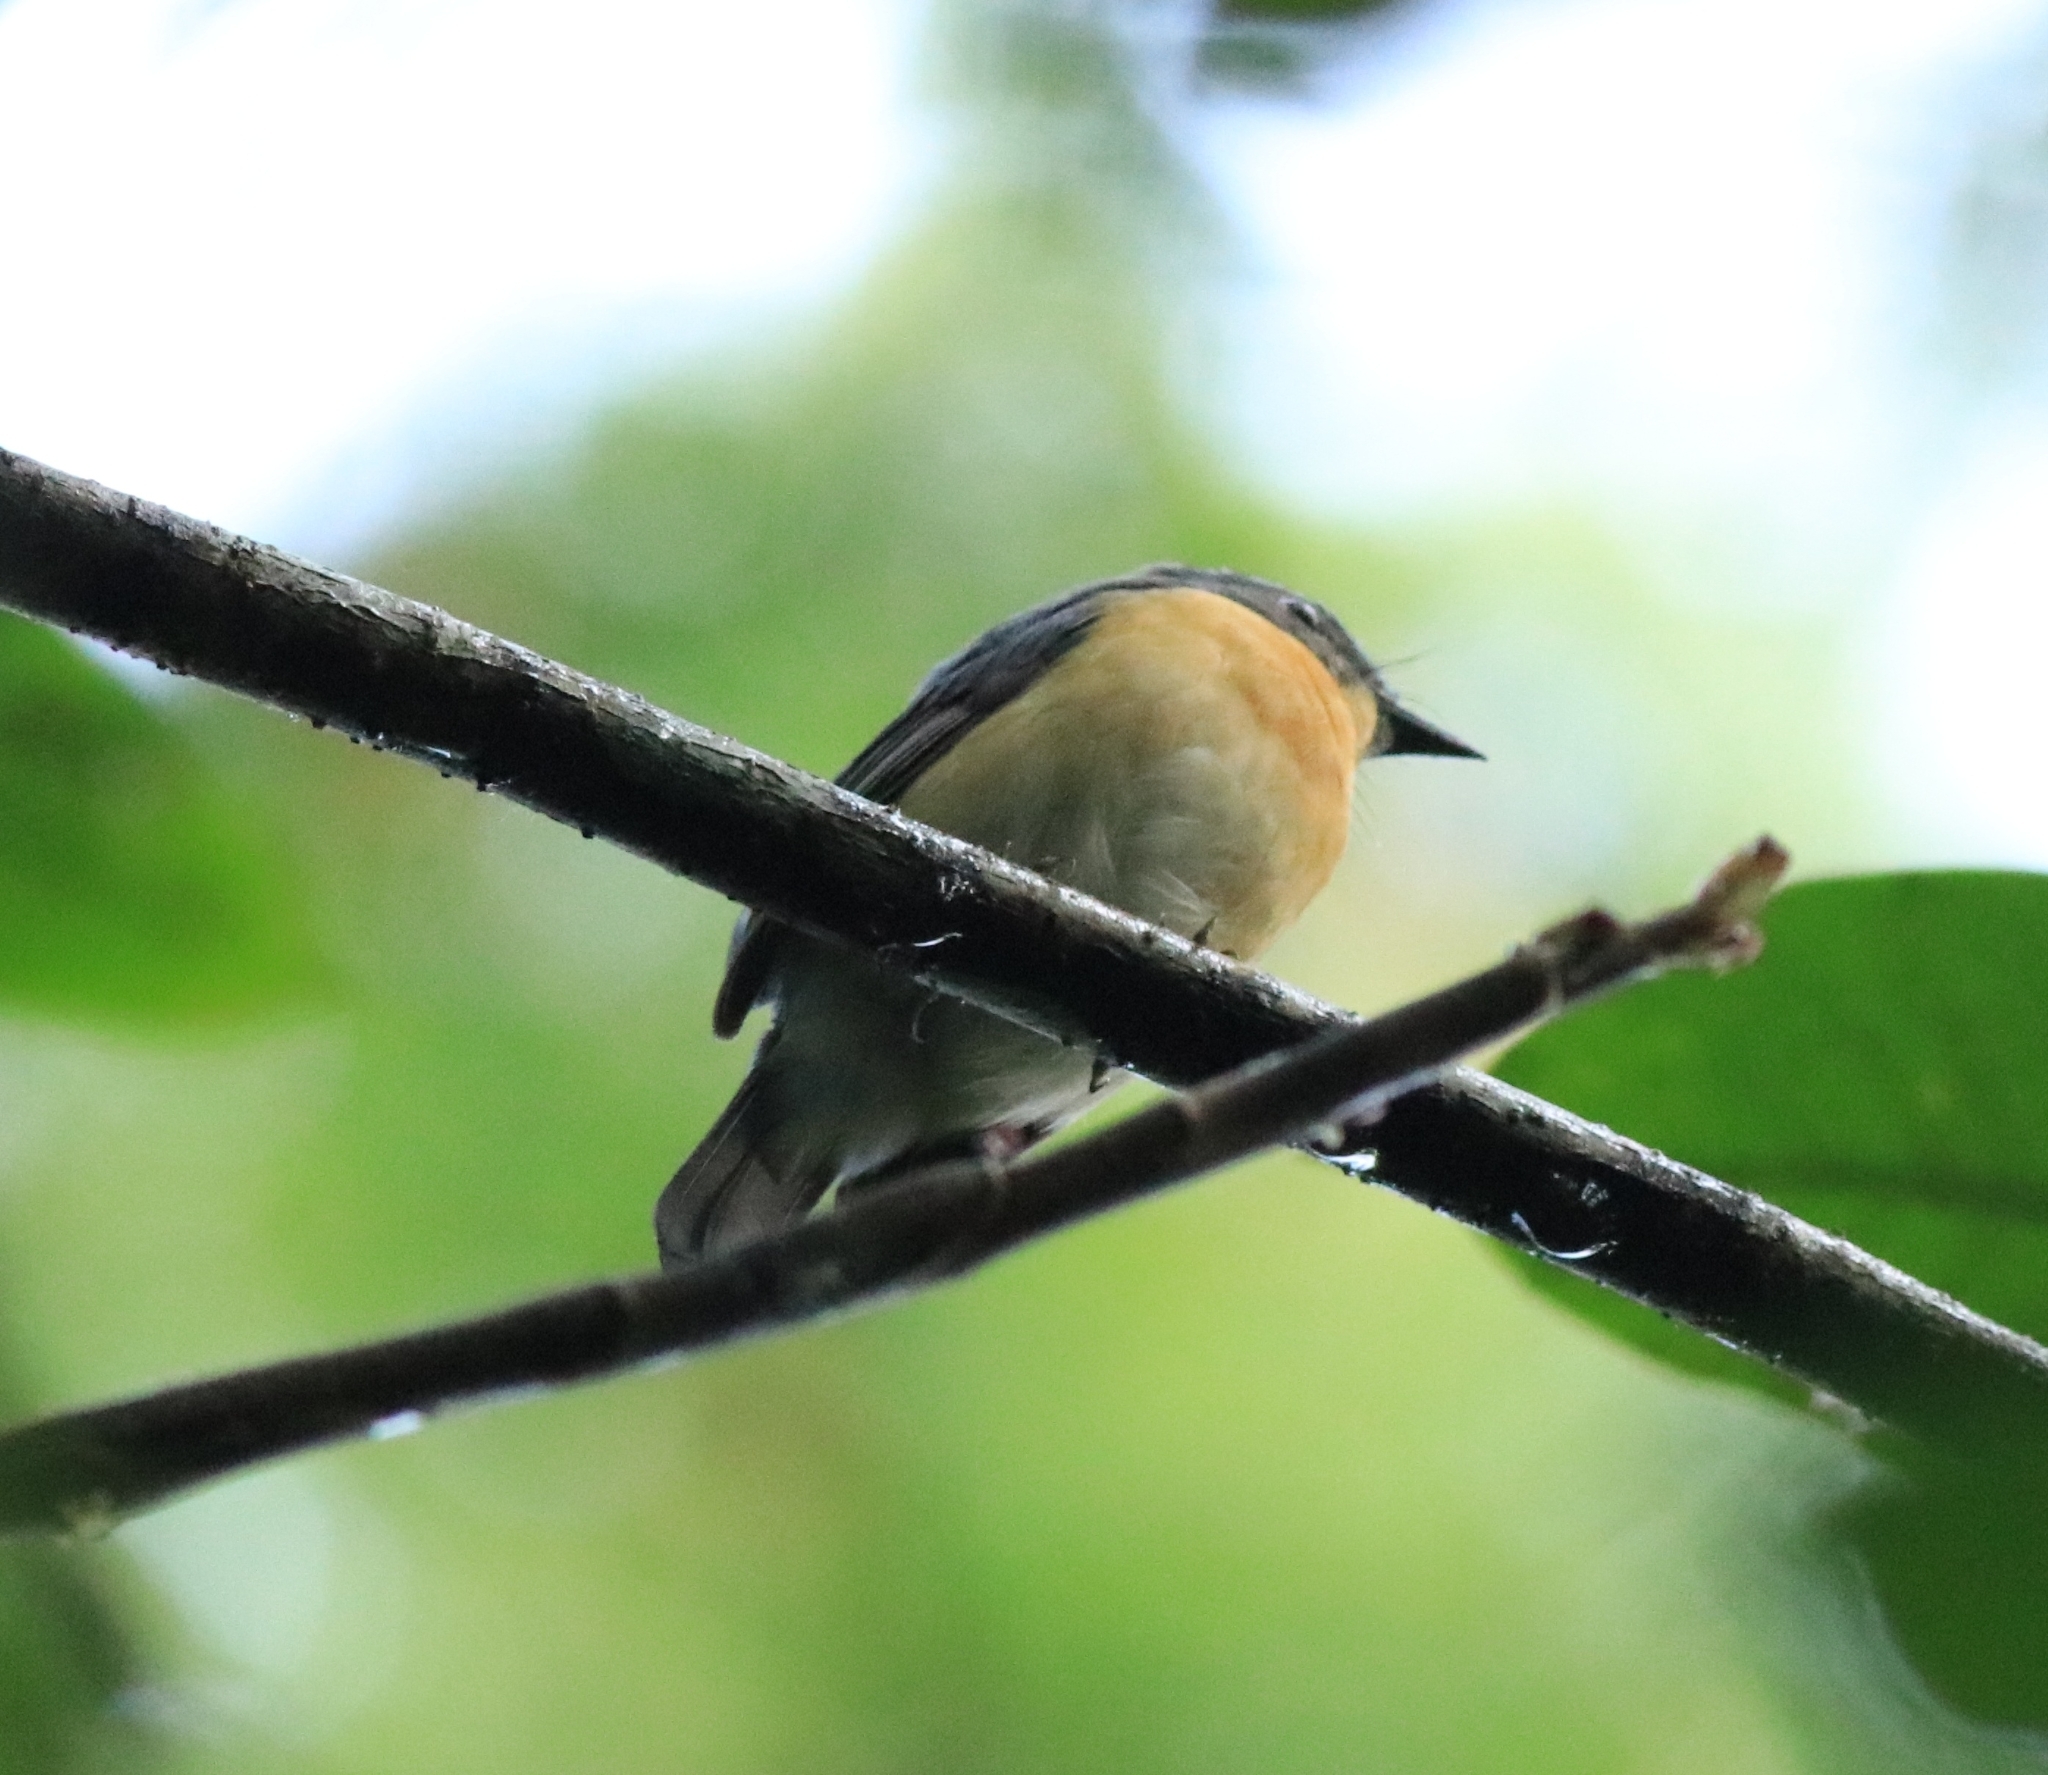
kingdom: Animalia
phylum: Chordata
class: Aves
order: Passeriformes
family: Muscicapidae
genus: Cyornis
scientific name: Cyornis tickelliae
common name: Tickell's blue flycatcher
